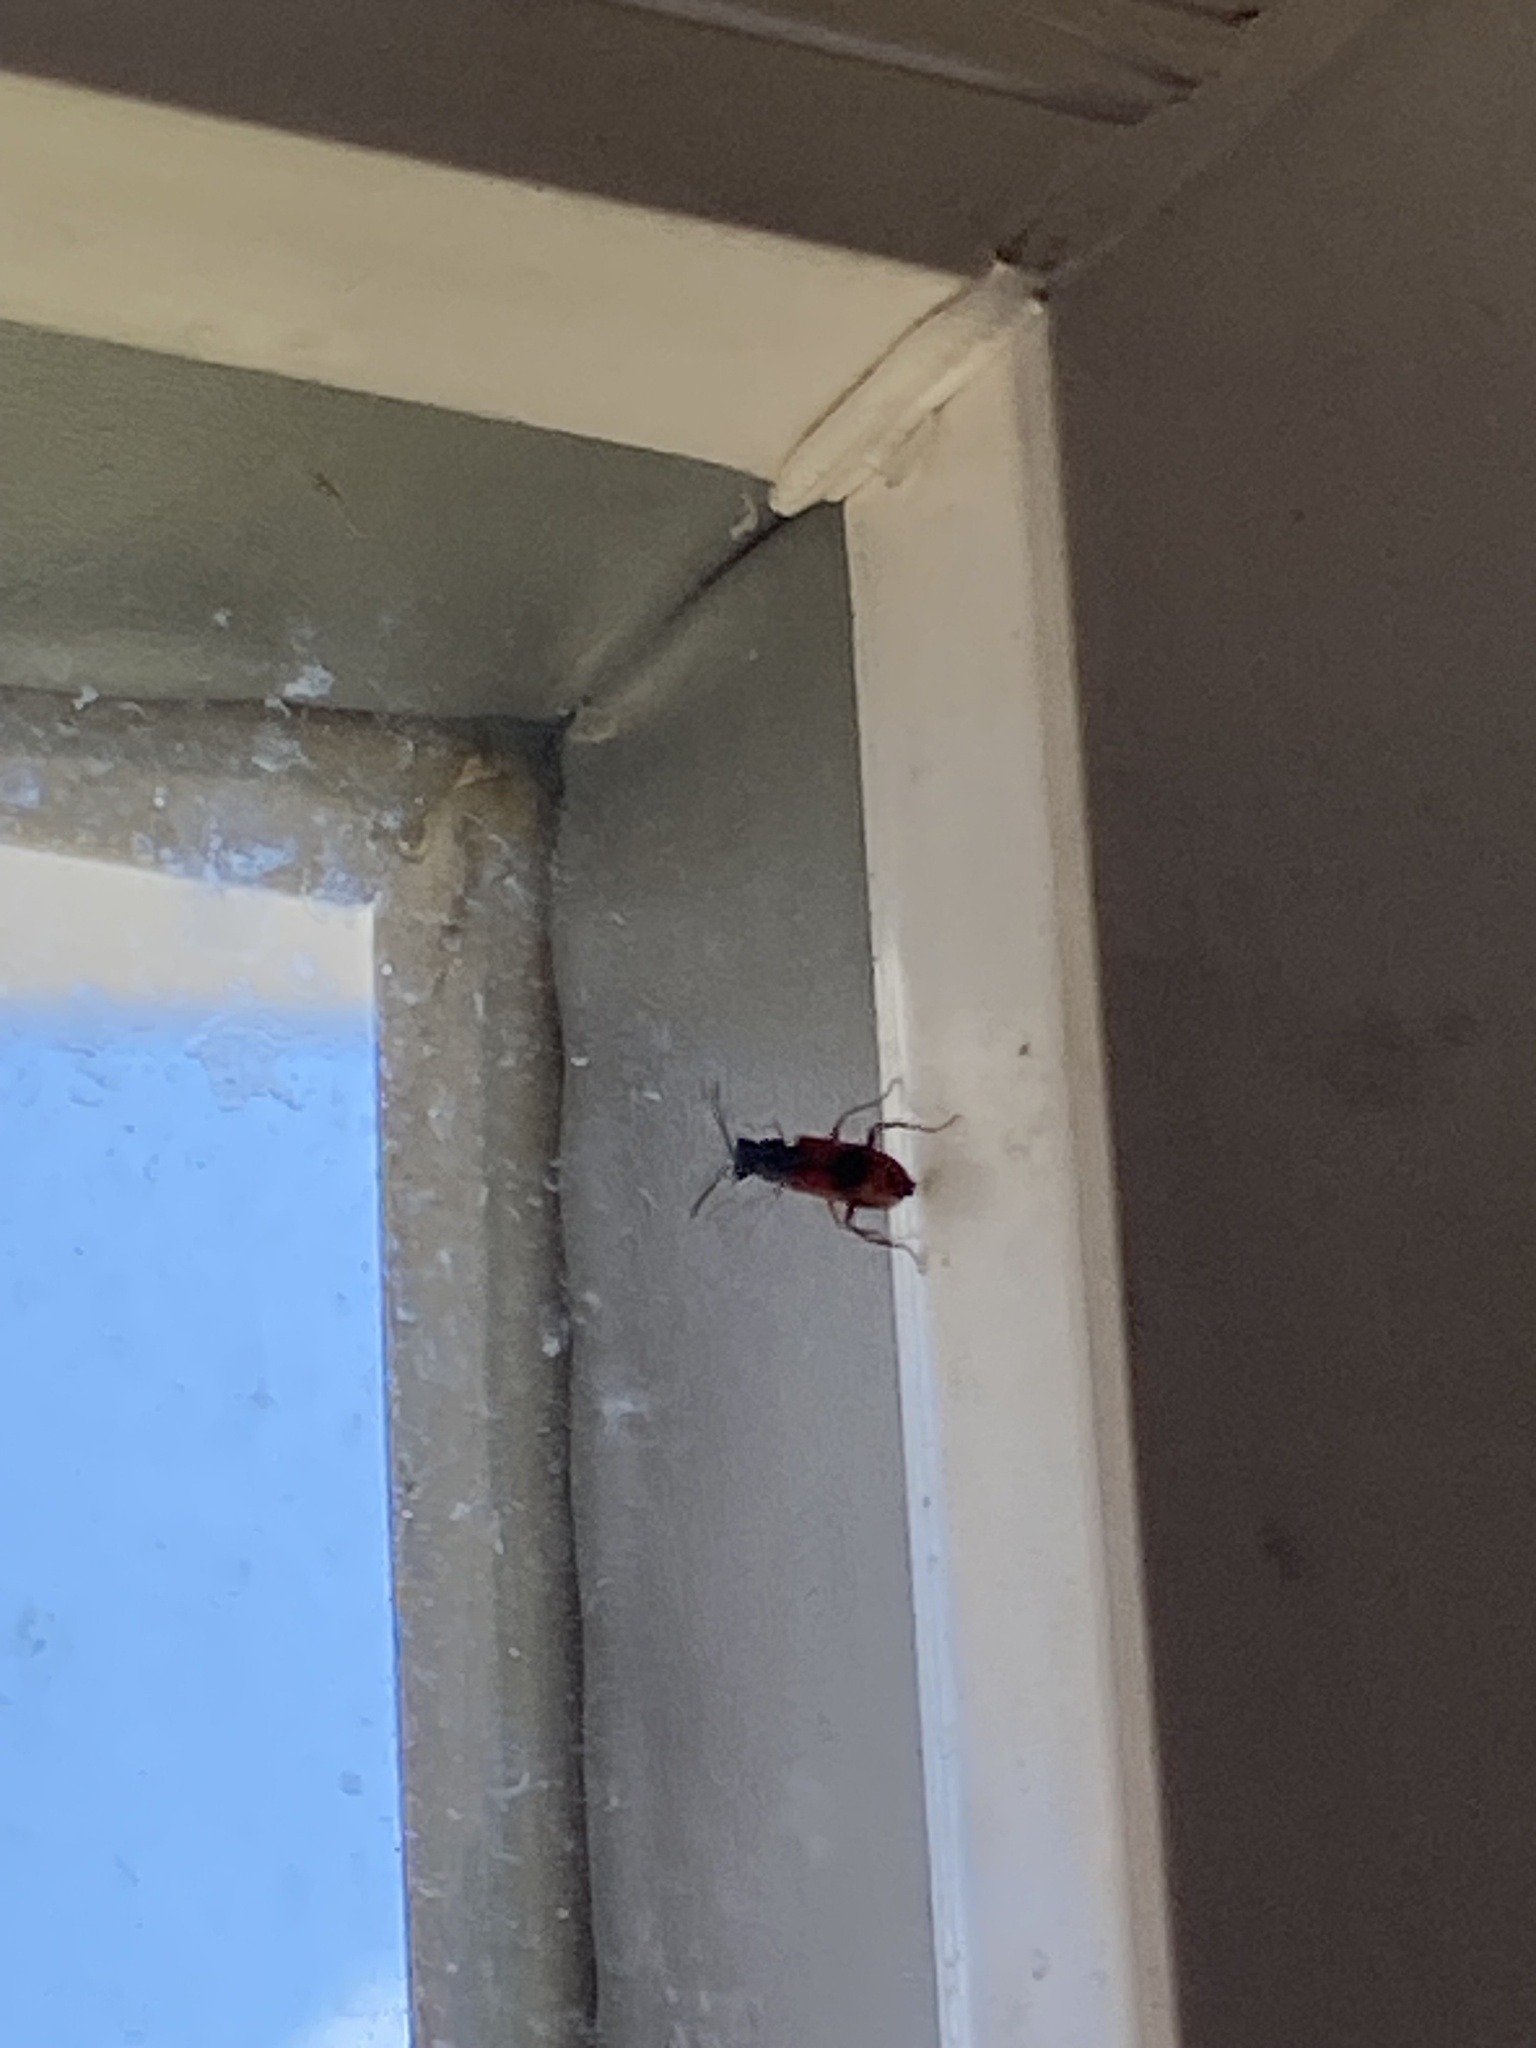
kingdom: Animalia
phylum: Arthropoda
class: Insecta
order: Coleoptera
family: Melyridae
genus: Anthocomus
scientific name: Anthocomus equestris
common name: Black-banded soft-winged flower beetle
